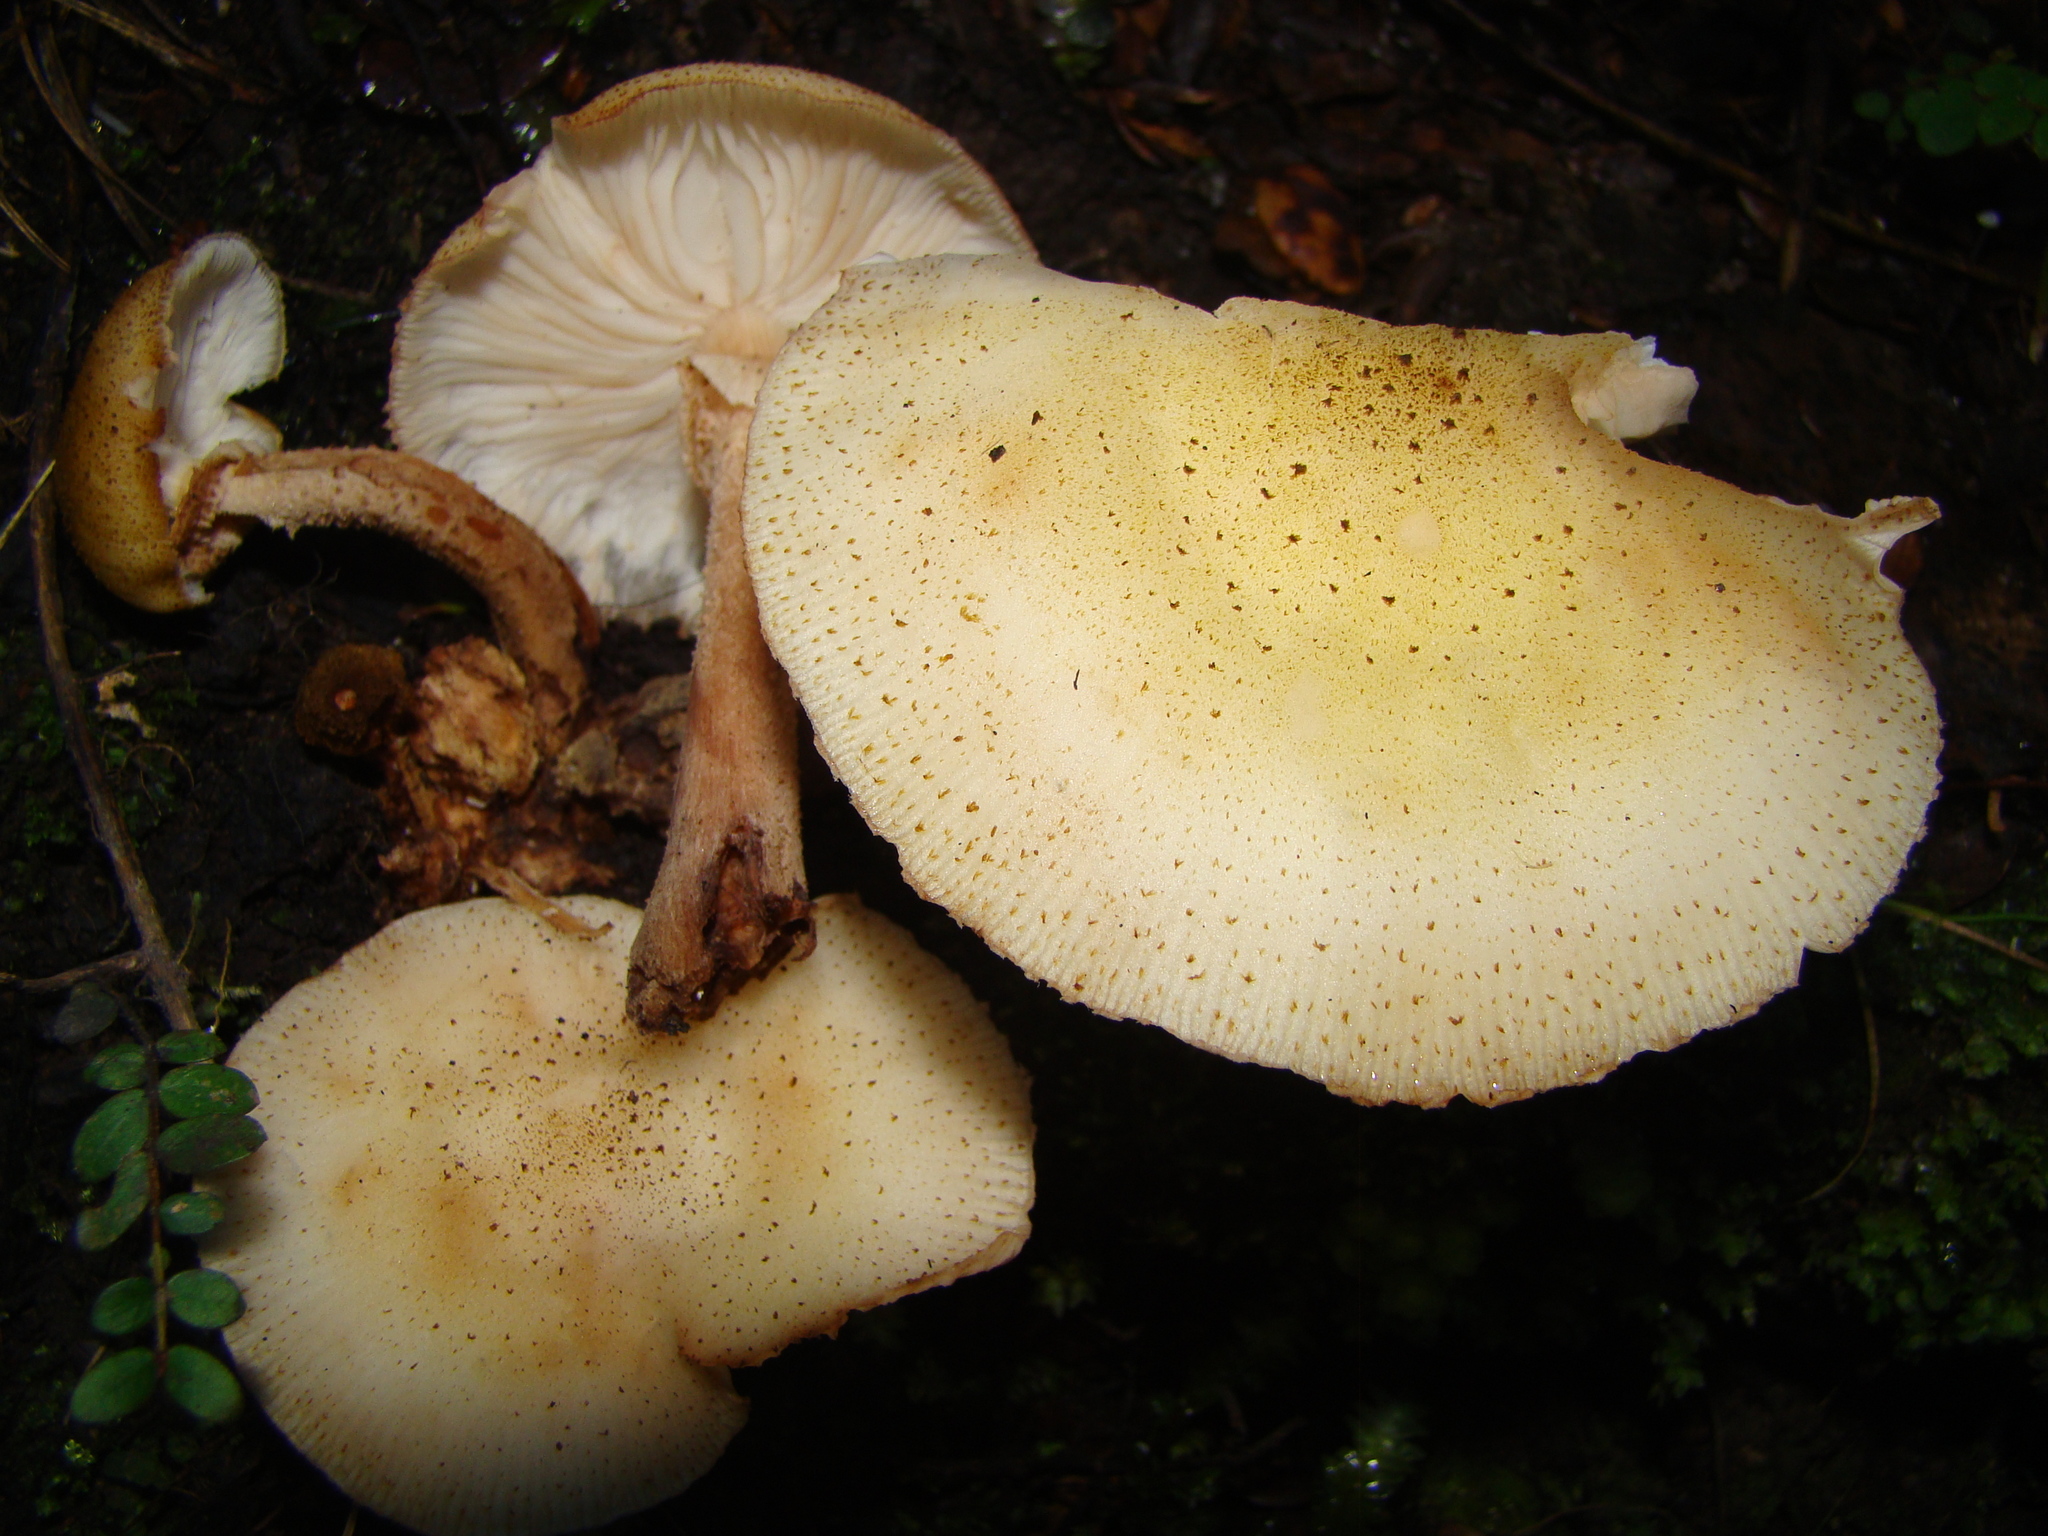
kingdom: Fungi
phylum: Basidiomycota
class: Agaricomycetes
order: Agaricales
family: Physalacriaceae
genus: Armillaria
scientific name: Armillaria limonea
